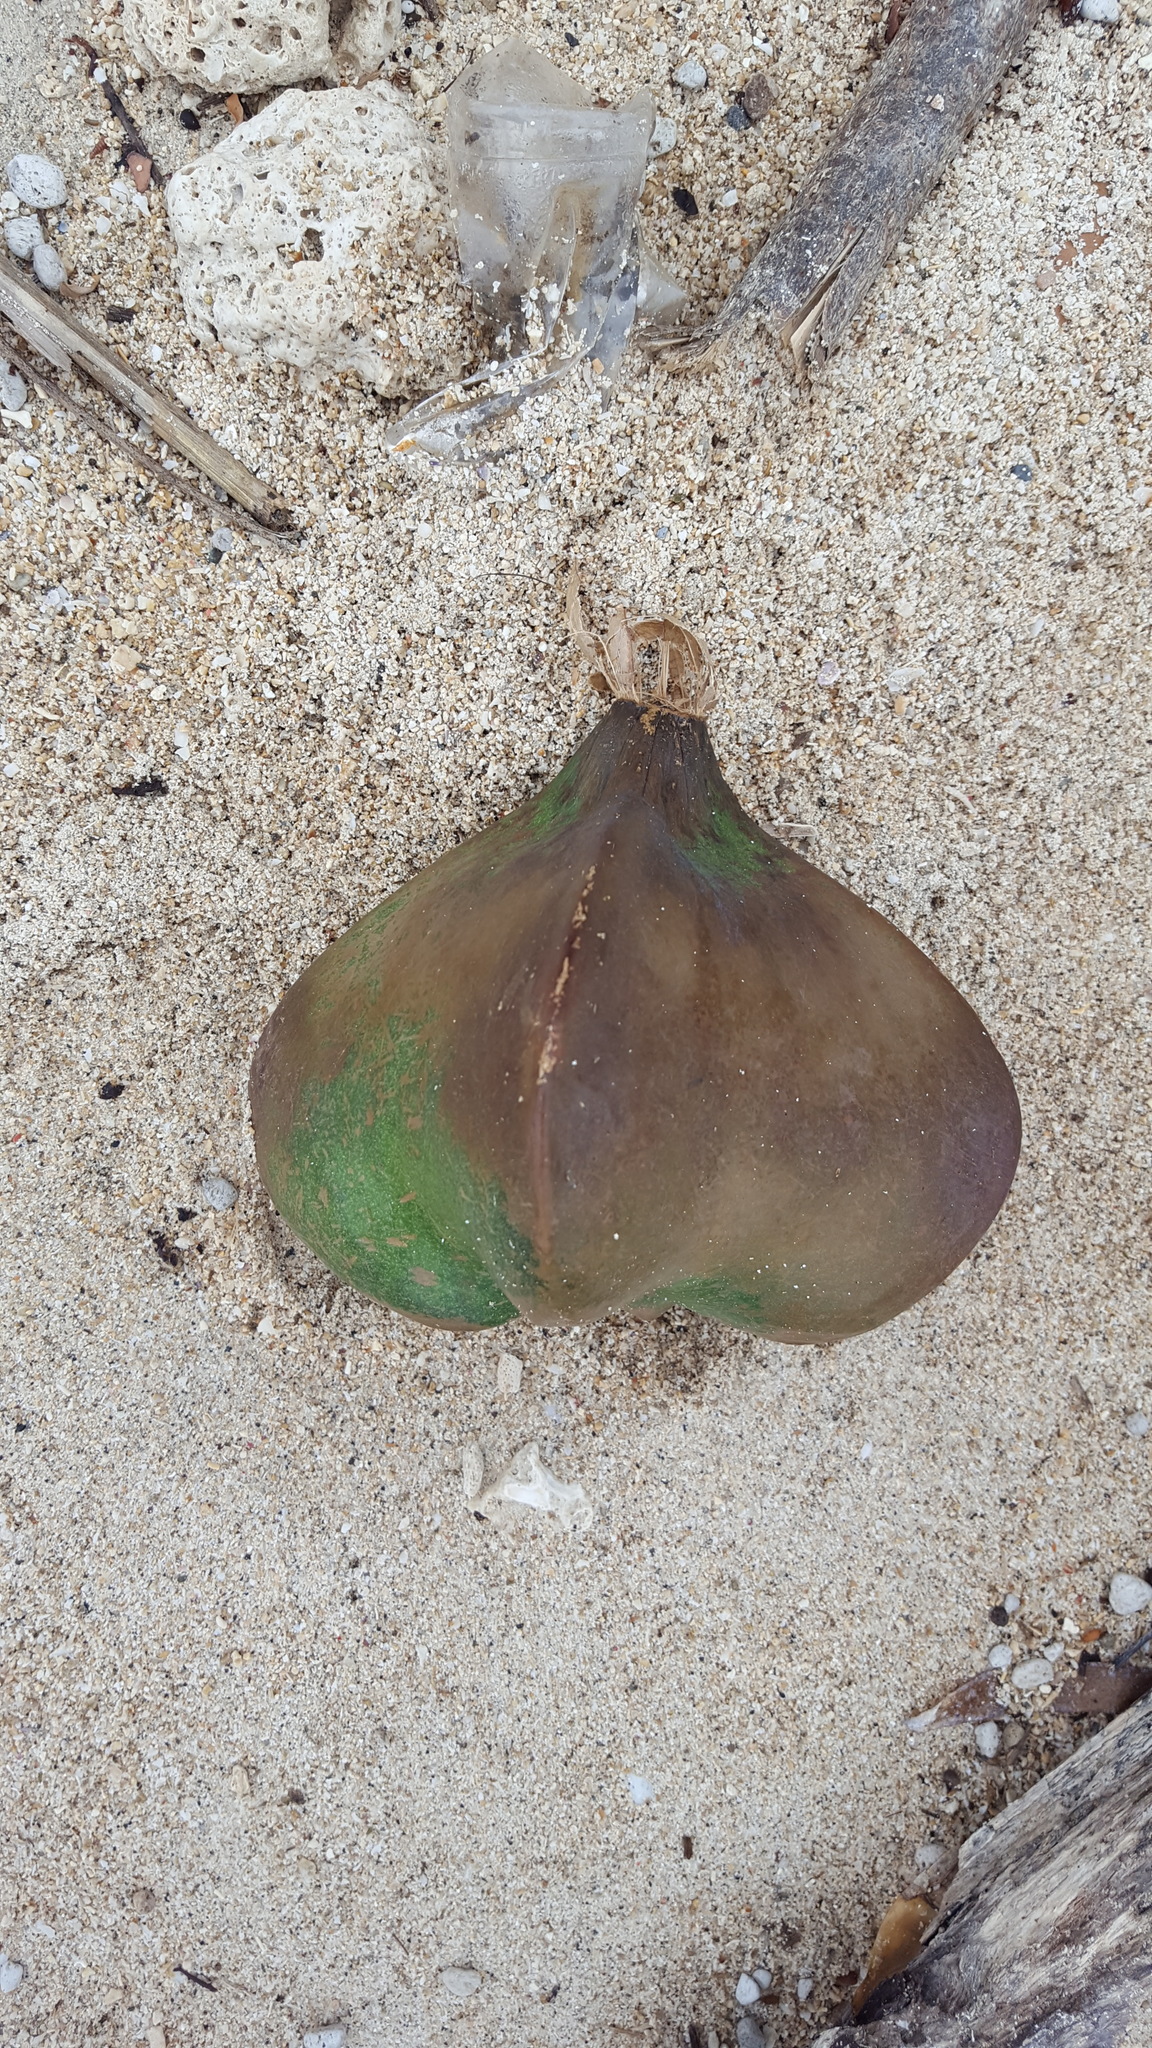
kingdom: Plantae
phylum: Tracheophyta
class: Magnoliopsida
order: Ericales
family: Lecythidaceae
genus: Barringtonia
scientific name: Barringtonia asiatica
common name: Mango-pine
